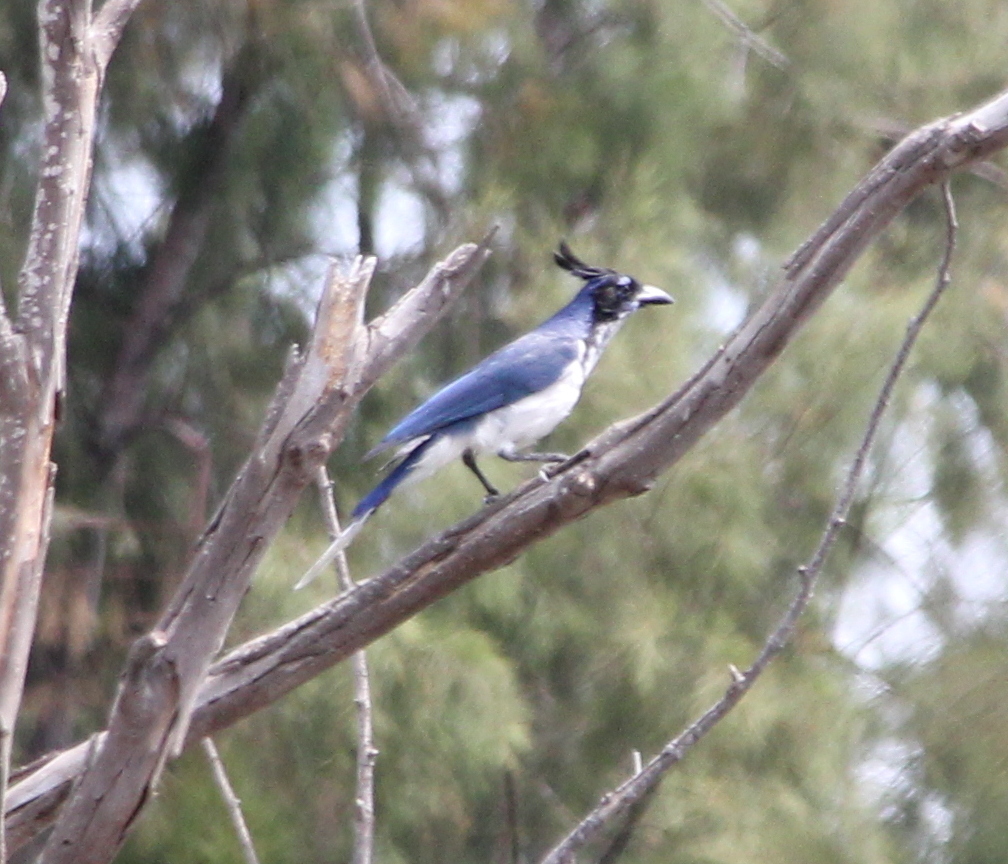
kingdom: Animalia
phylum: Chordata
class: Aves
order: Passeriformes
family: Corvidae
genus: Calocitta
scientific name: Calocitta colliei
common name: Black-throated magpie-jay
